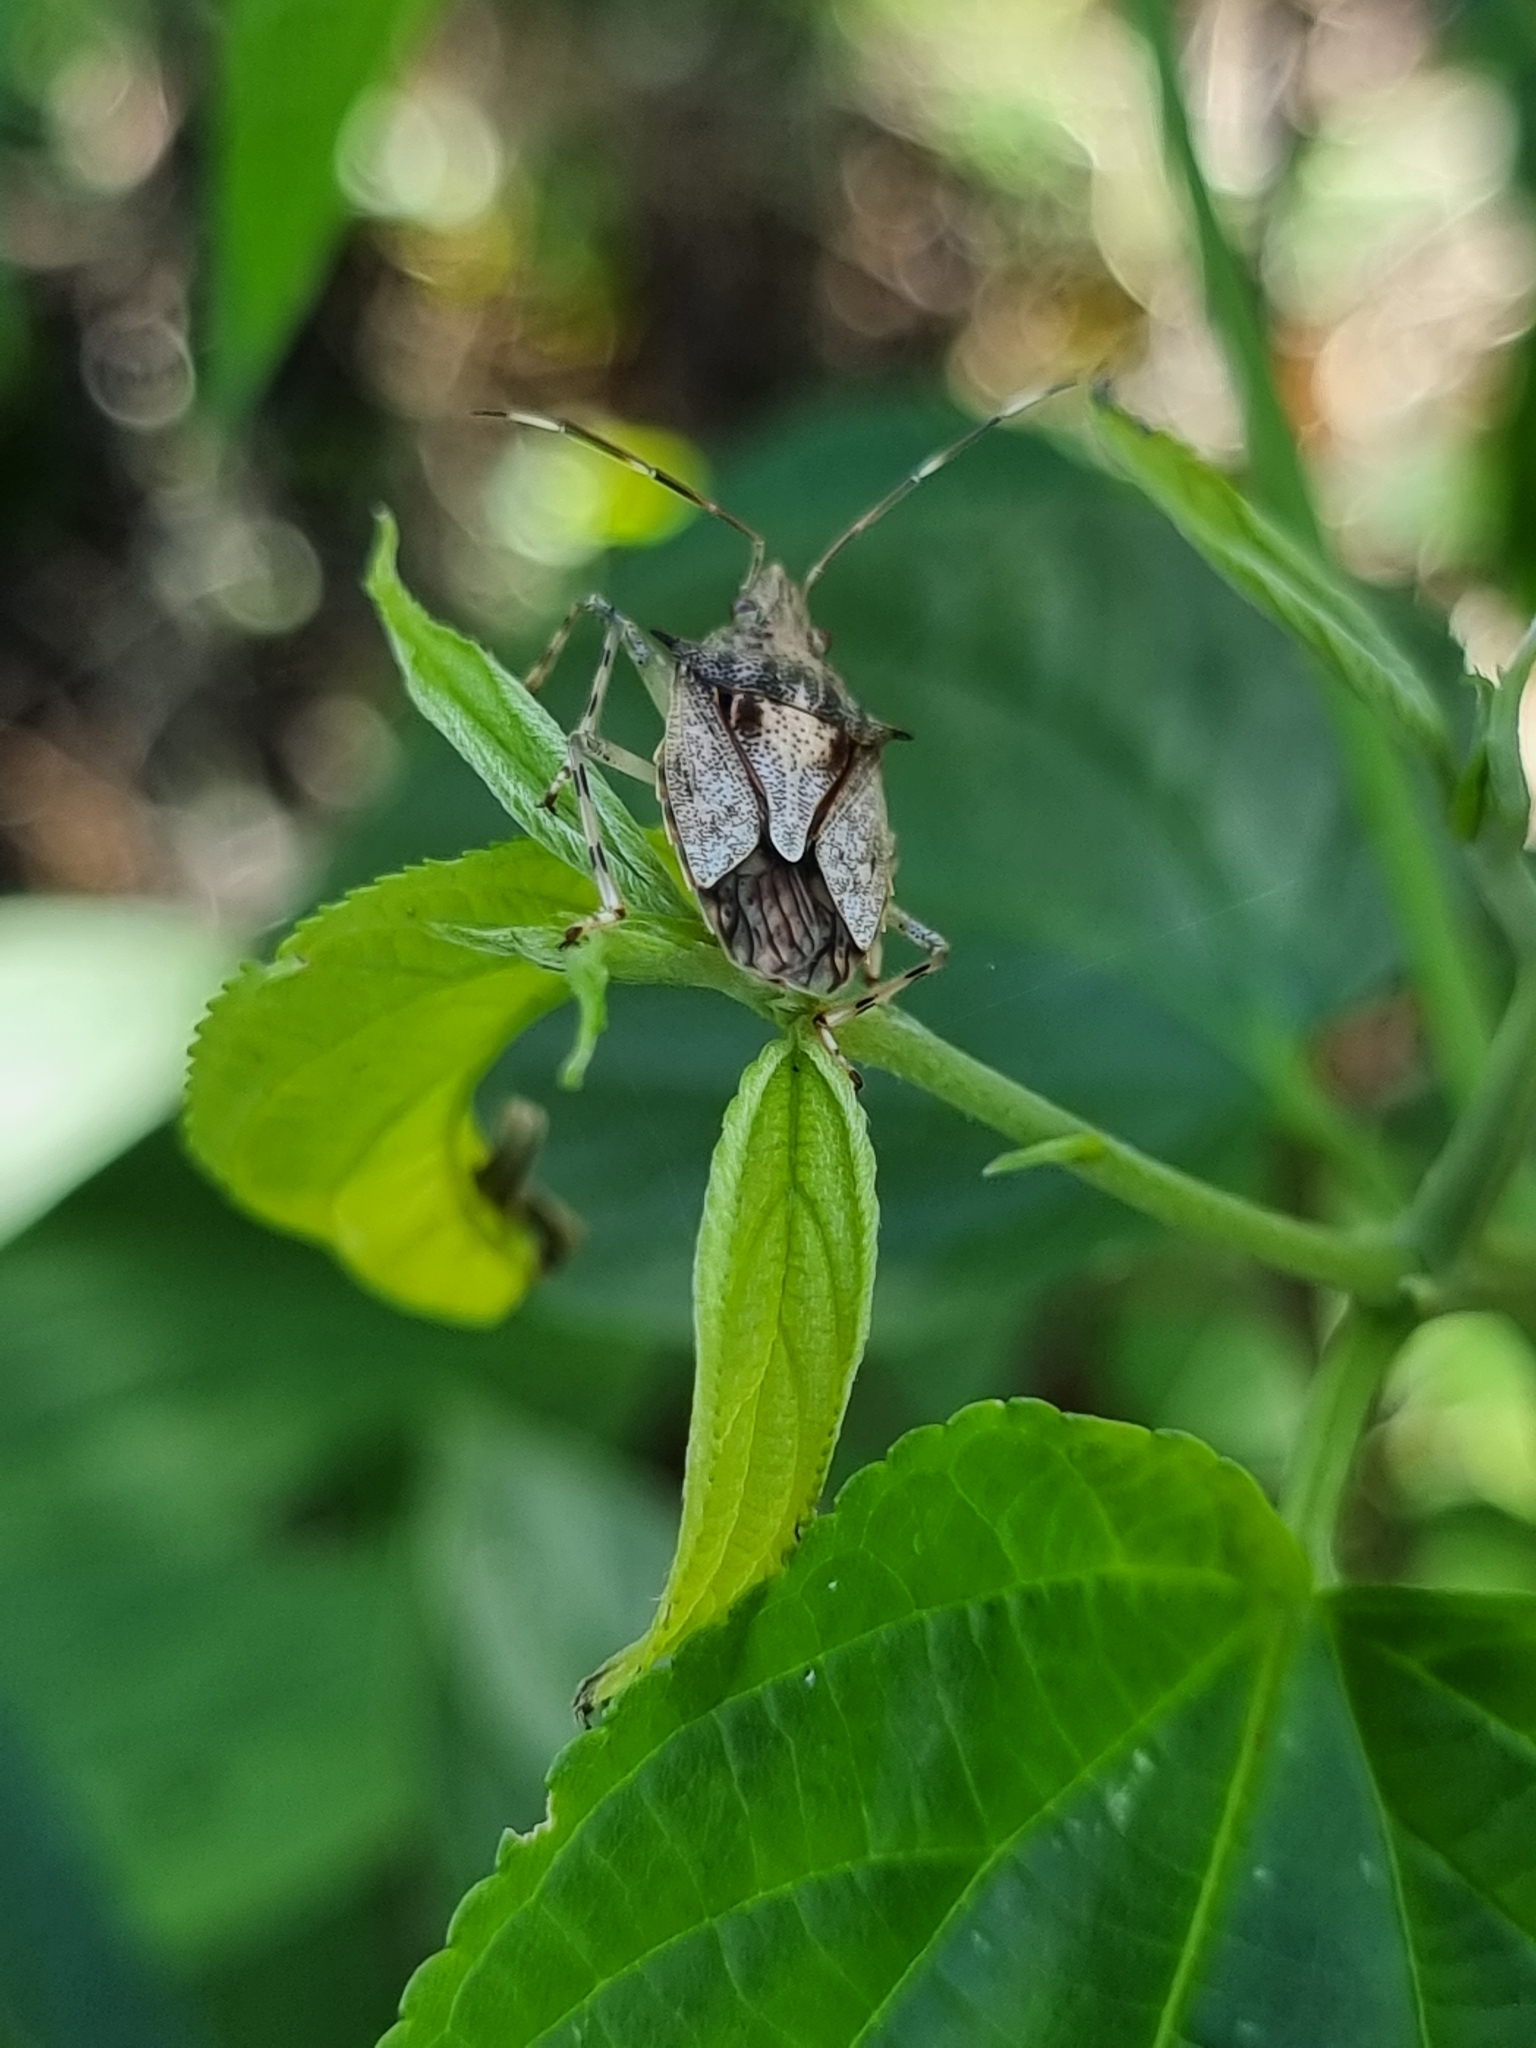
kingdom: Animalia
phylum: Arthropoda
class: Insecta
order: Hemiptera
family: Pentatomidae
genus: Bromocoris
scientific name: Bromocoris
